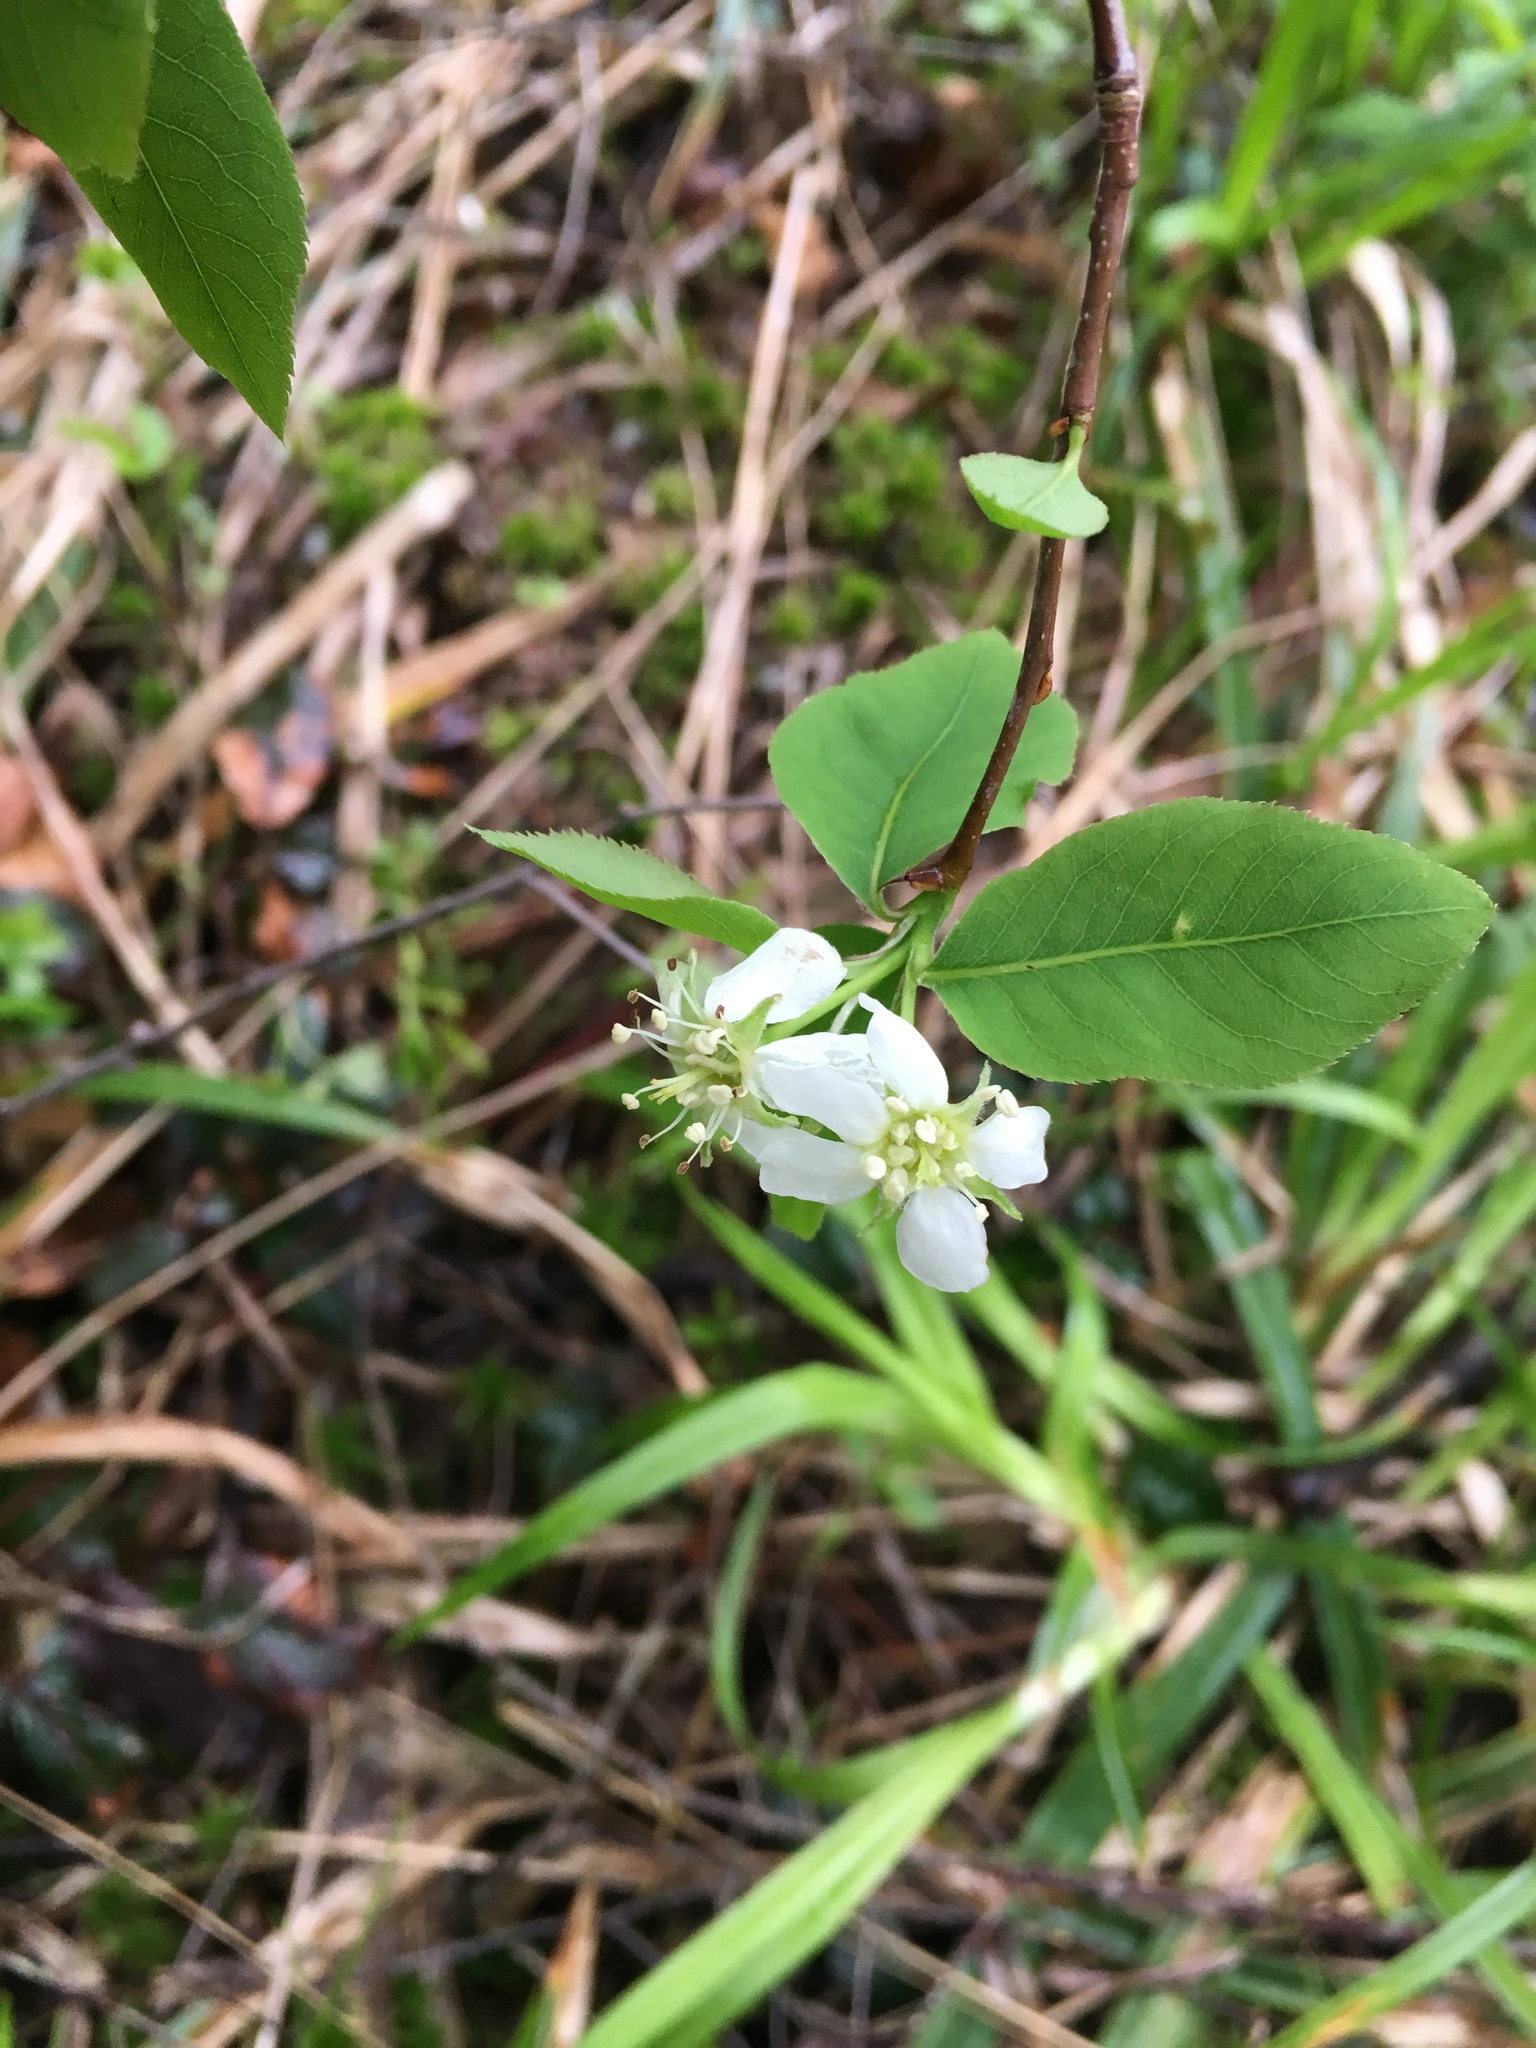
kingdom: Plantae
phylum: Tracheophyta
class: Magnoliopsida
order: Rosales
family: Rosaceae
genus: Amelanchier
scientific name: Amelanchier bartramiana
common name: Mountain serviceberry
